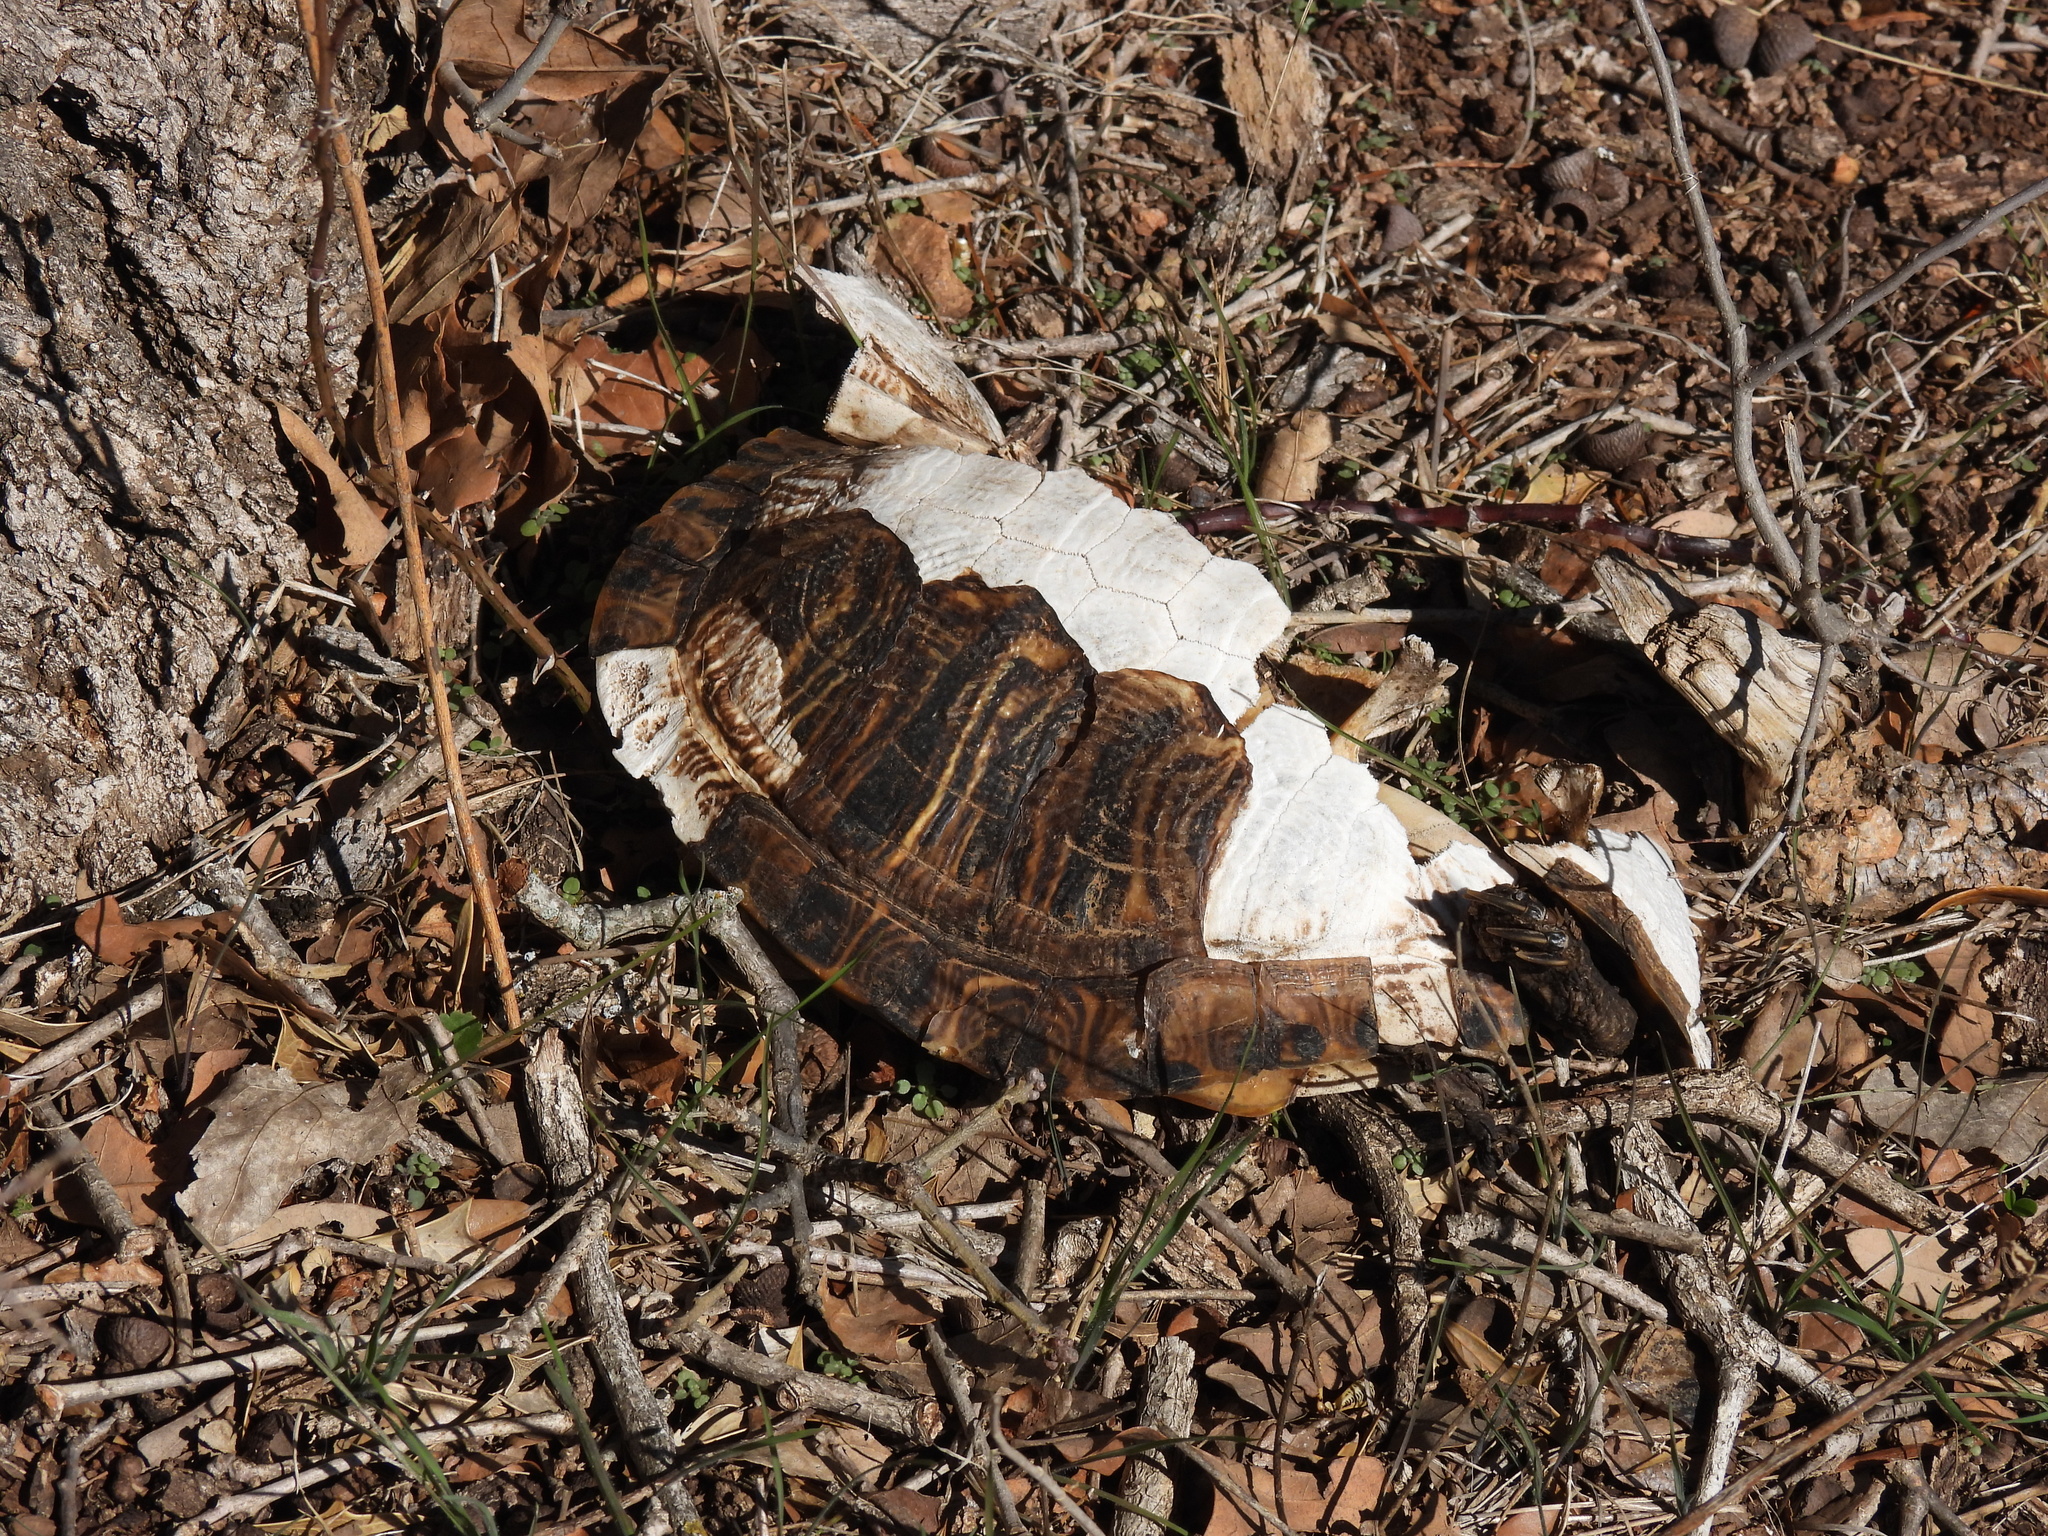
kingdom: Animalia
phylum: Chordata
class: Testudines
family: Emydidae
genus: Trachemys
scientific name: Trachemys scripta
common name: Slider
